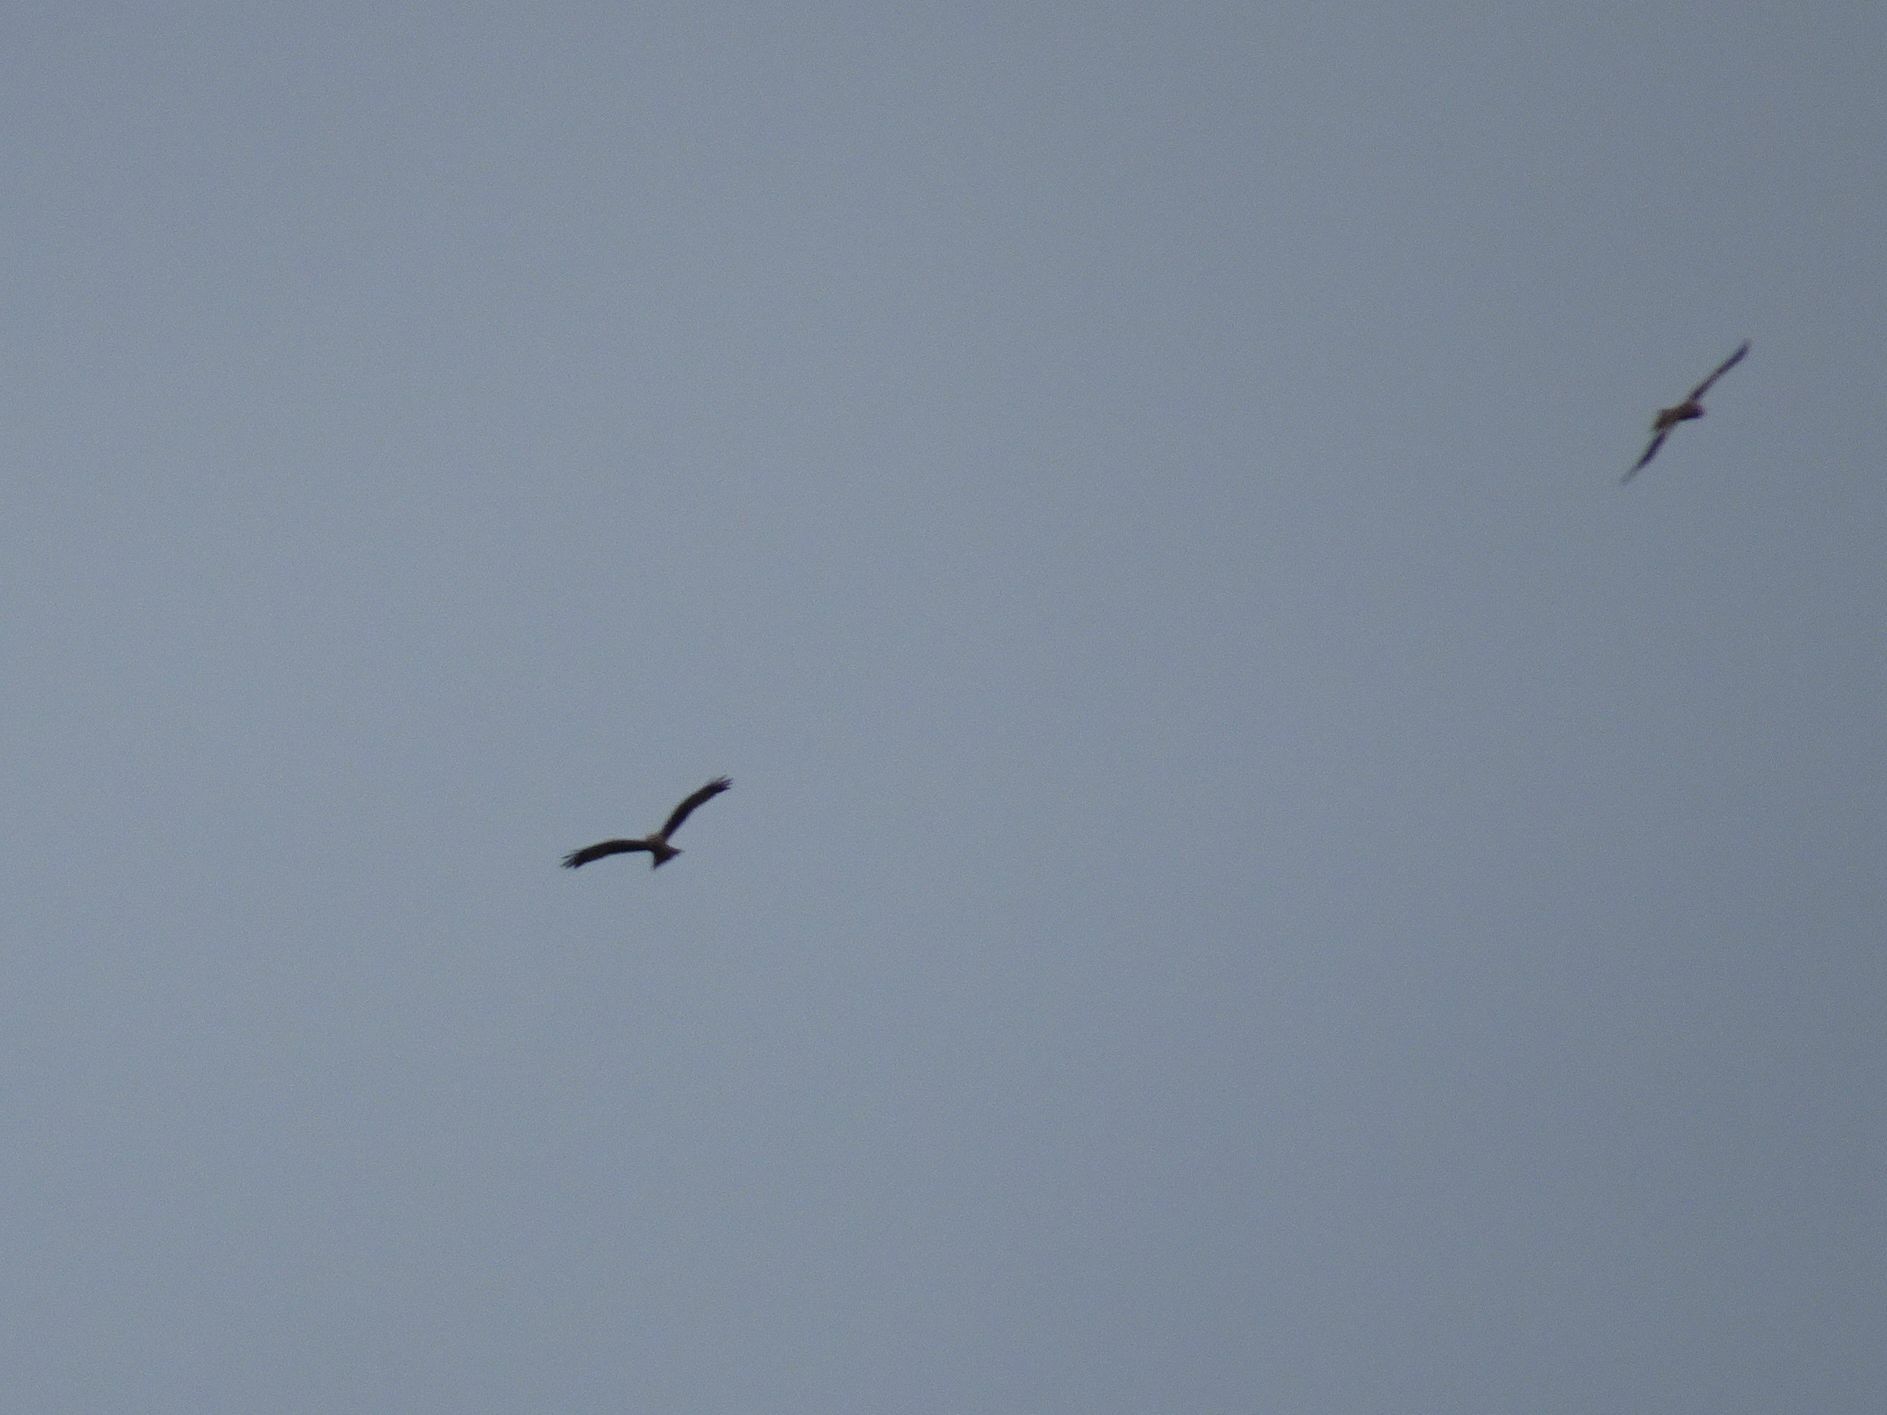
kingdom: Animalia
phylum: Chordata
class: Aves
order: Accipitriformes
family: Accipitridae
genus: Milvus
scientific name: Milvus migrans
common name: Black kite
